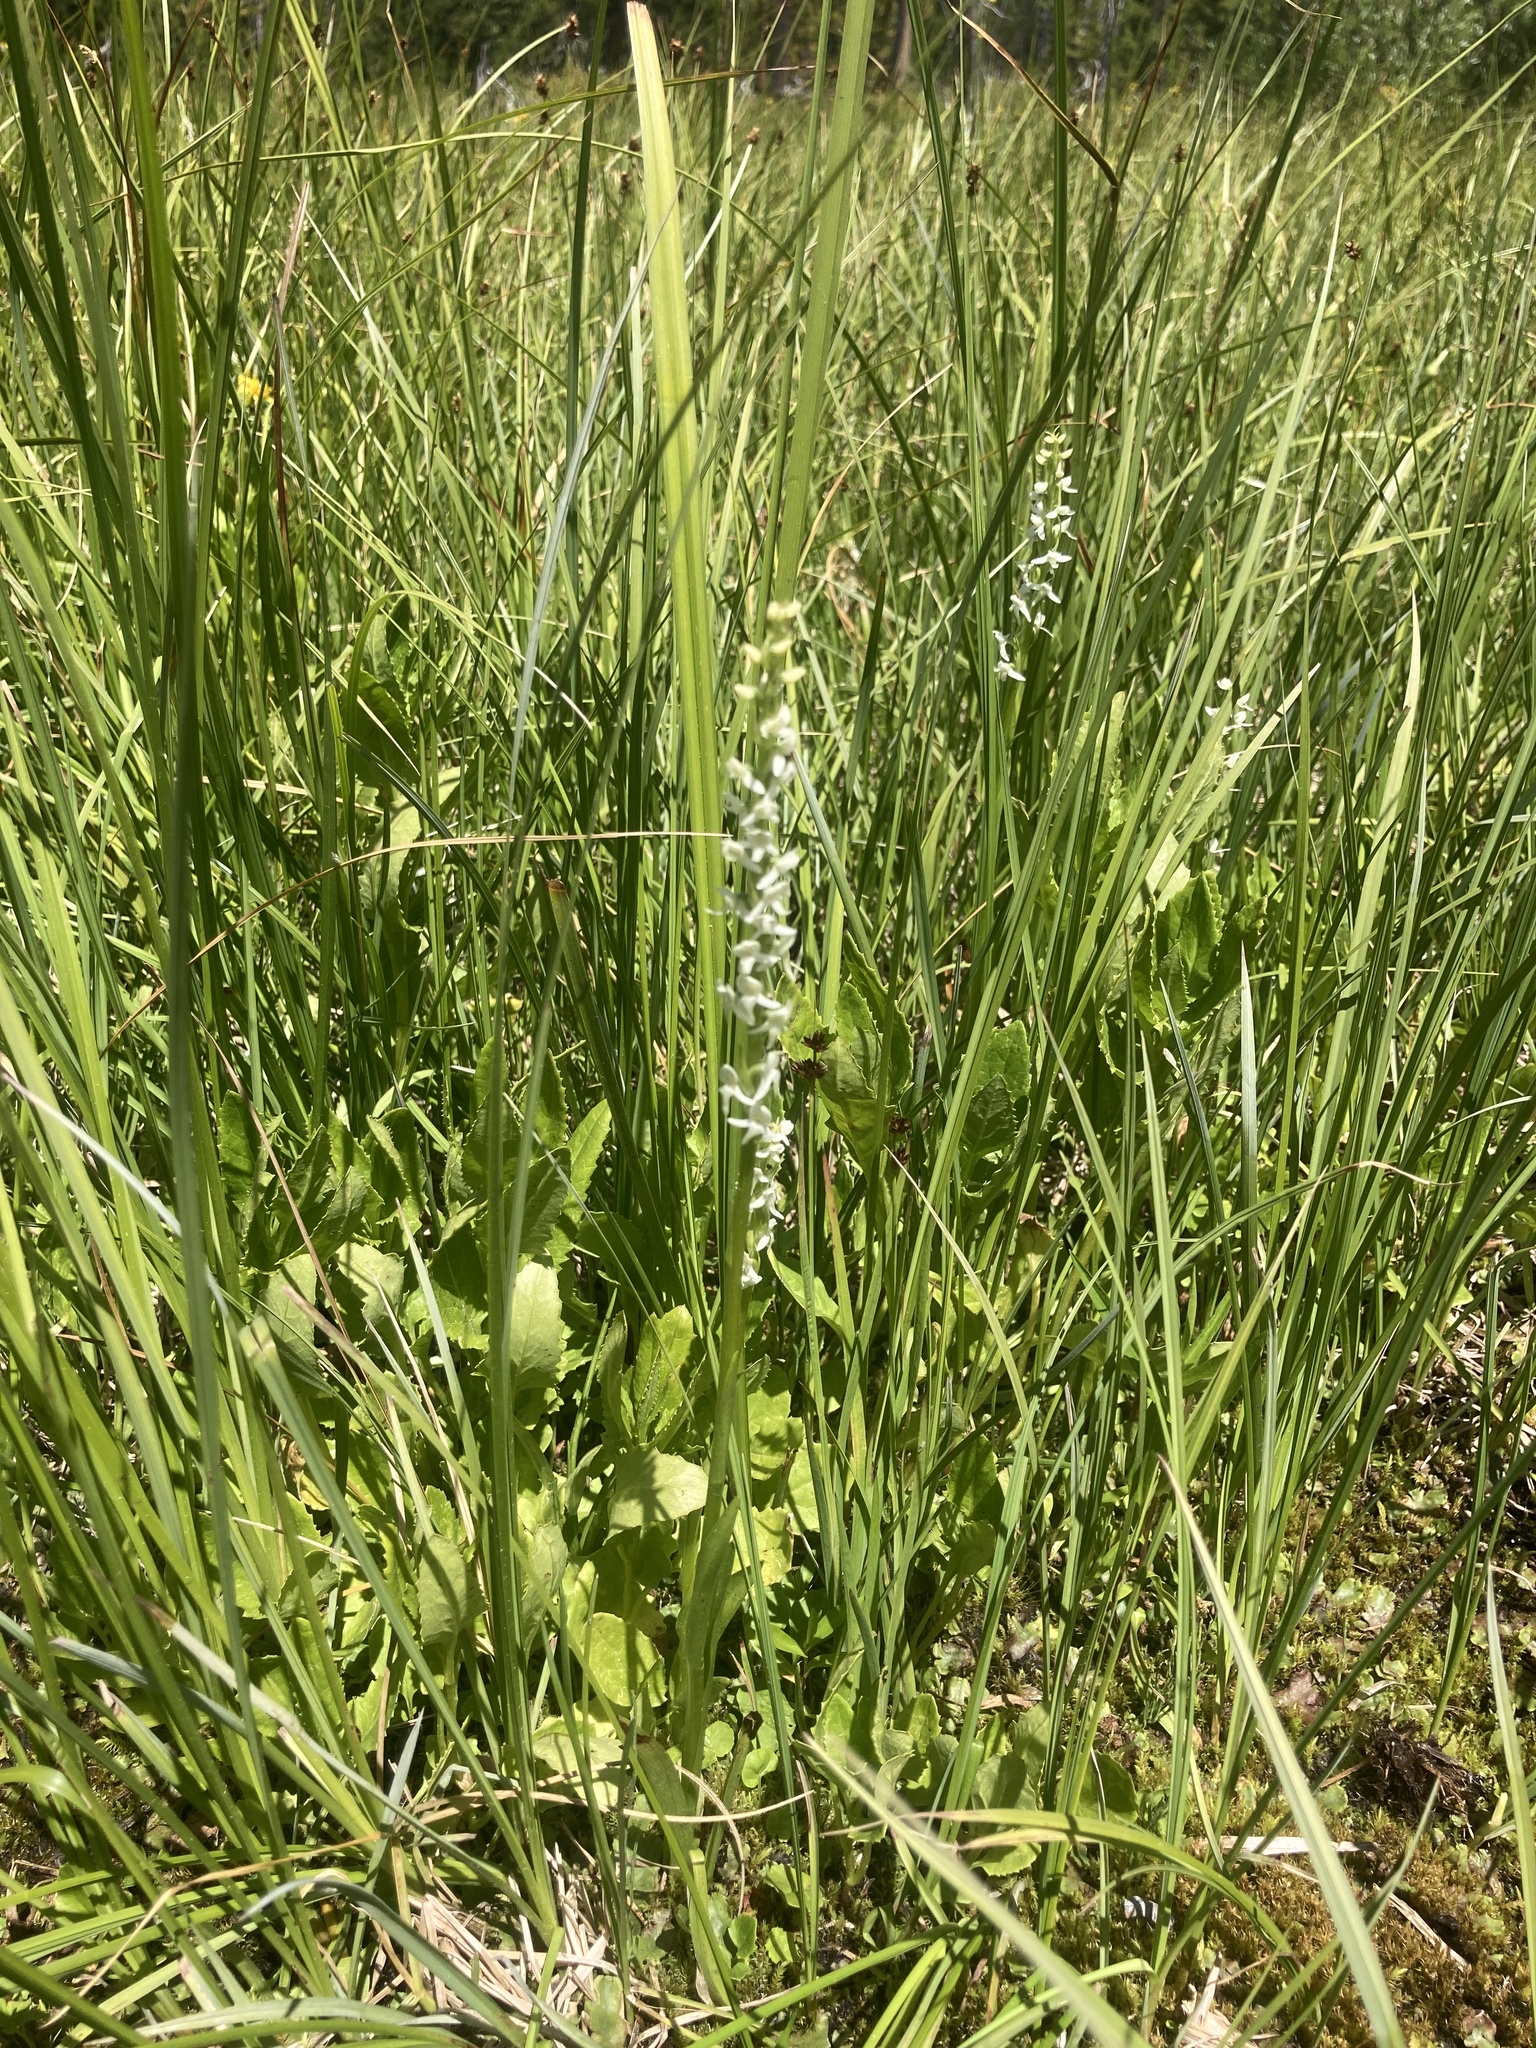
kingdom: Plantae
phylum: Tracheophyta
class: Liliopsida
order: Asparagales
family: Orchidaceae
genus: Platanthera
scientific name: Platanthera dilatata
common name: Bog candles
